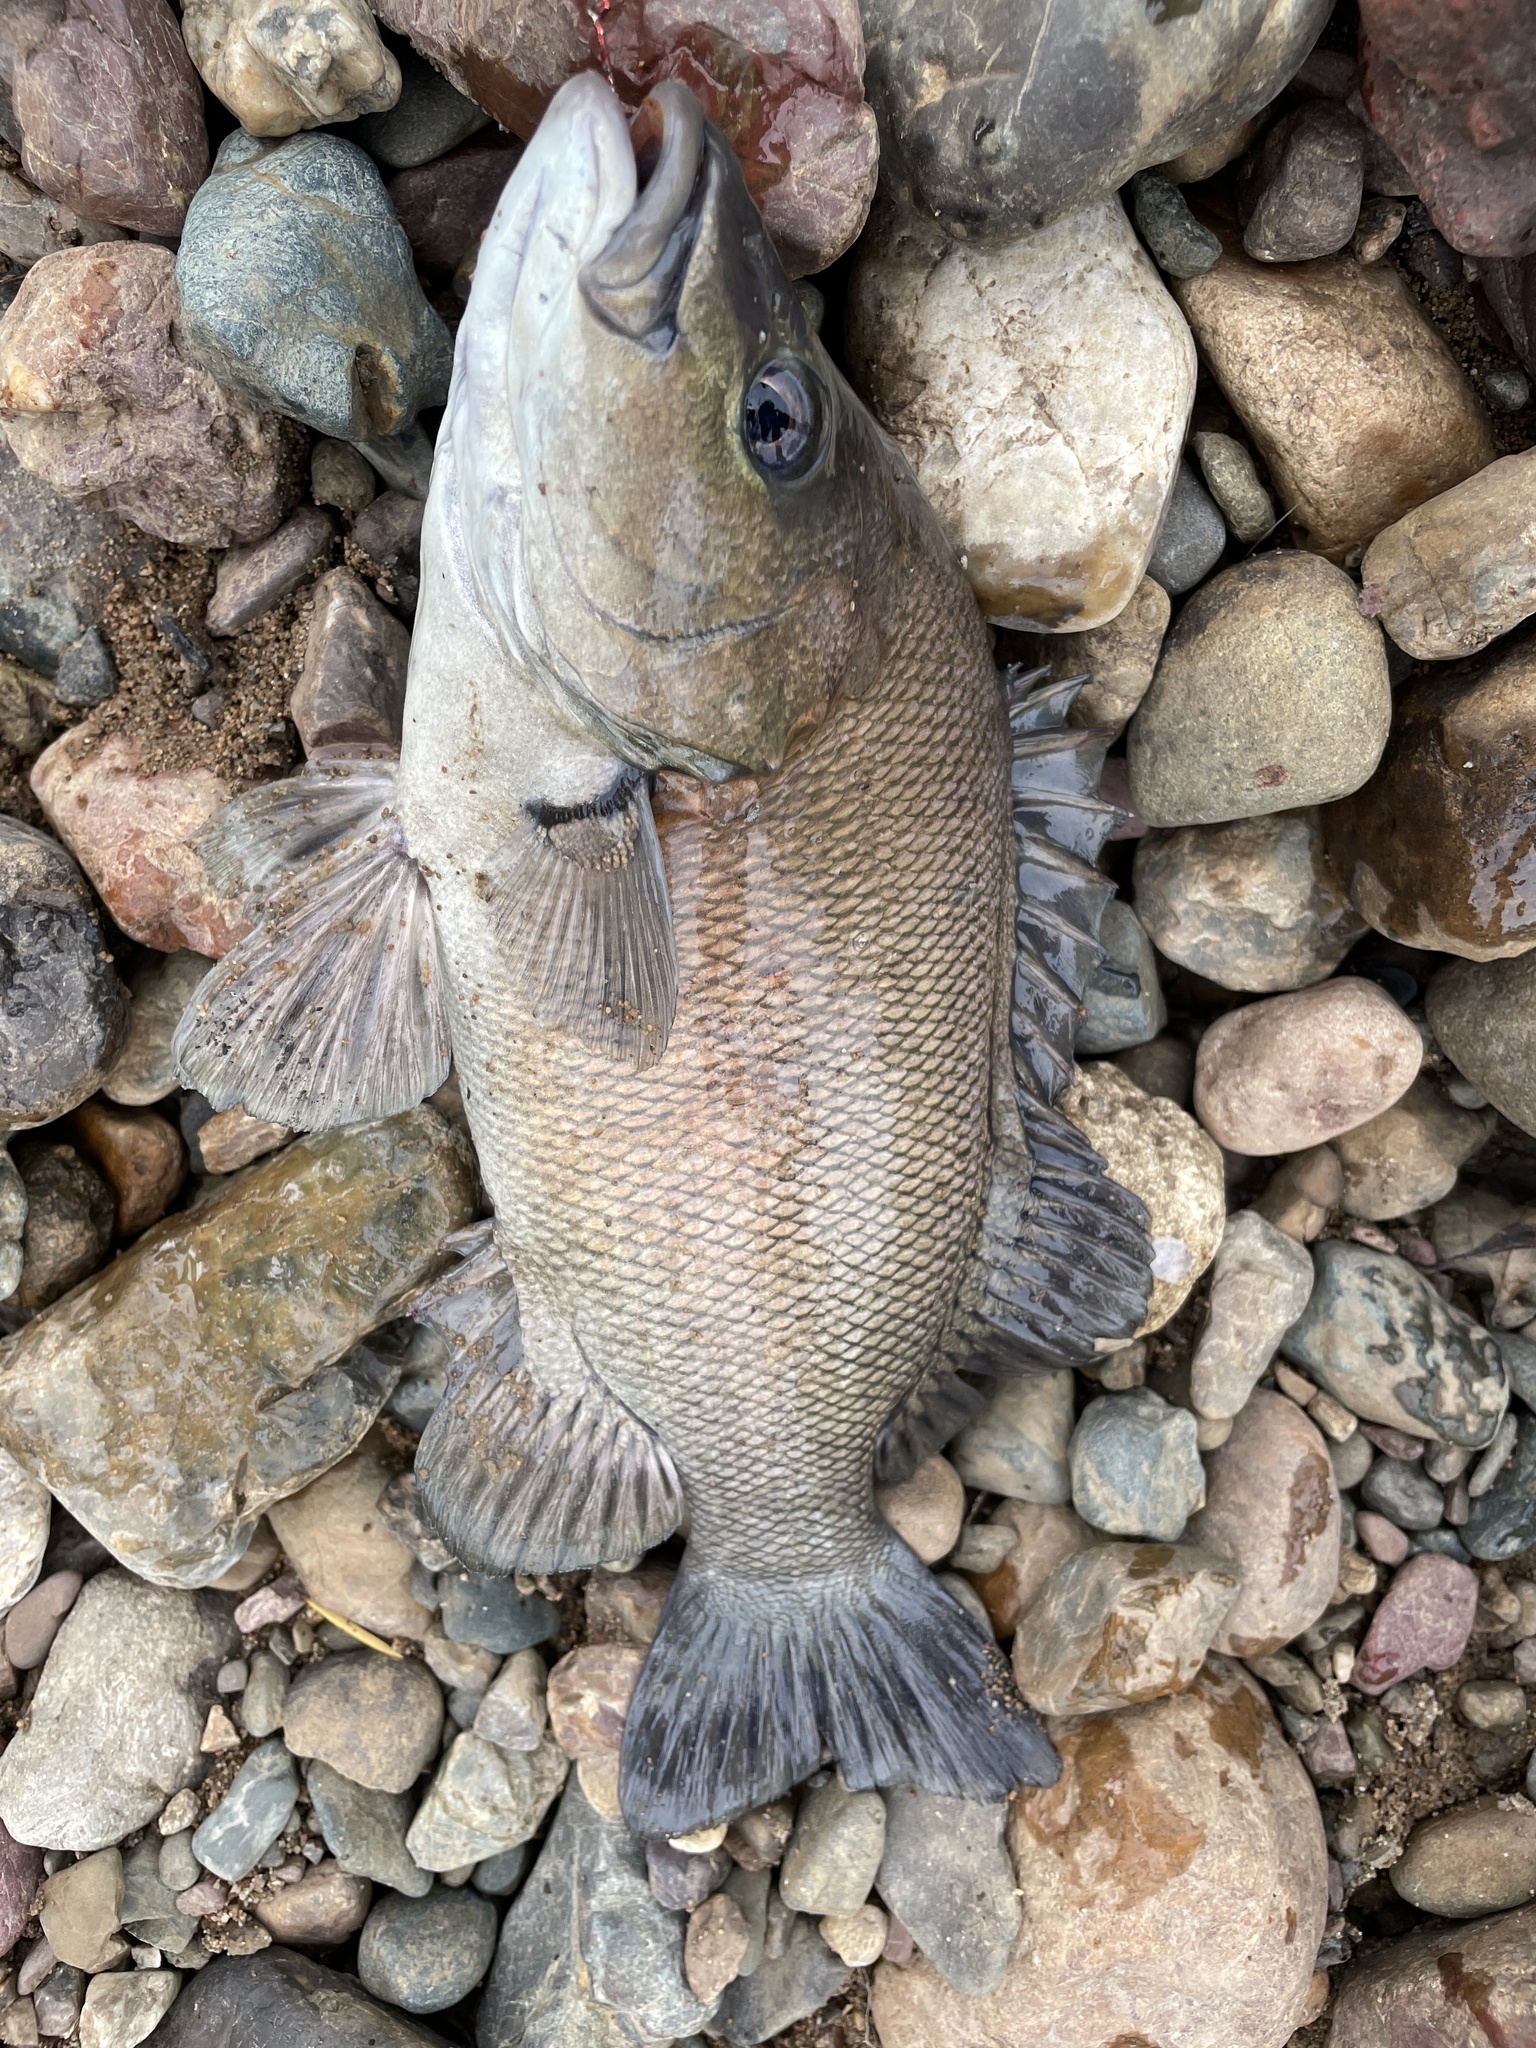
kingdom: Animalia
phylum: Chordata
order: Perciformes
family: Terapontidae
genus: Hephaestus
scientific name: Hephaestus fuliginosus
